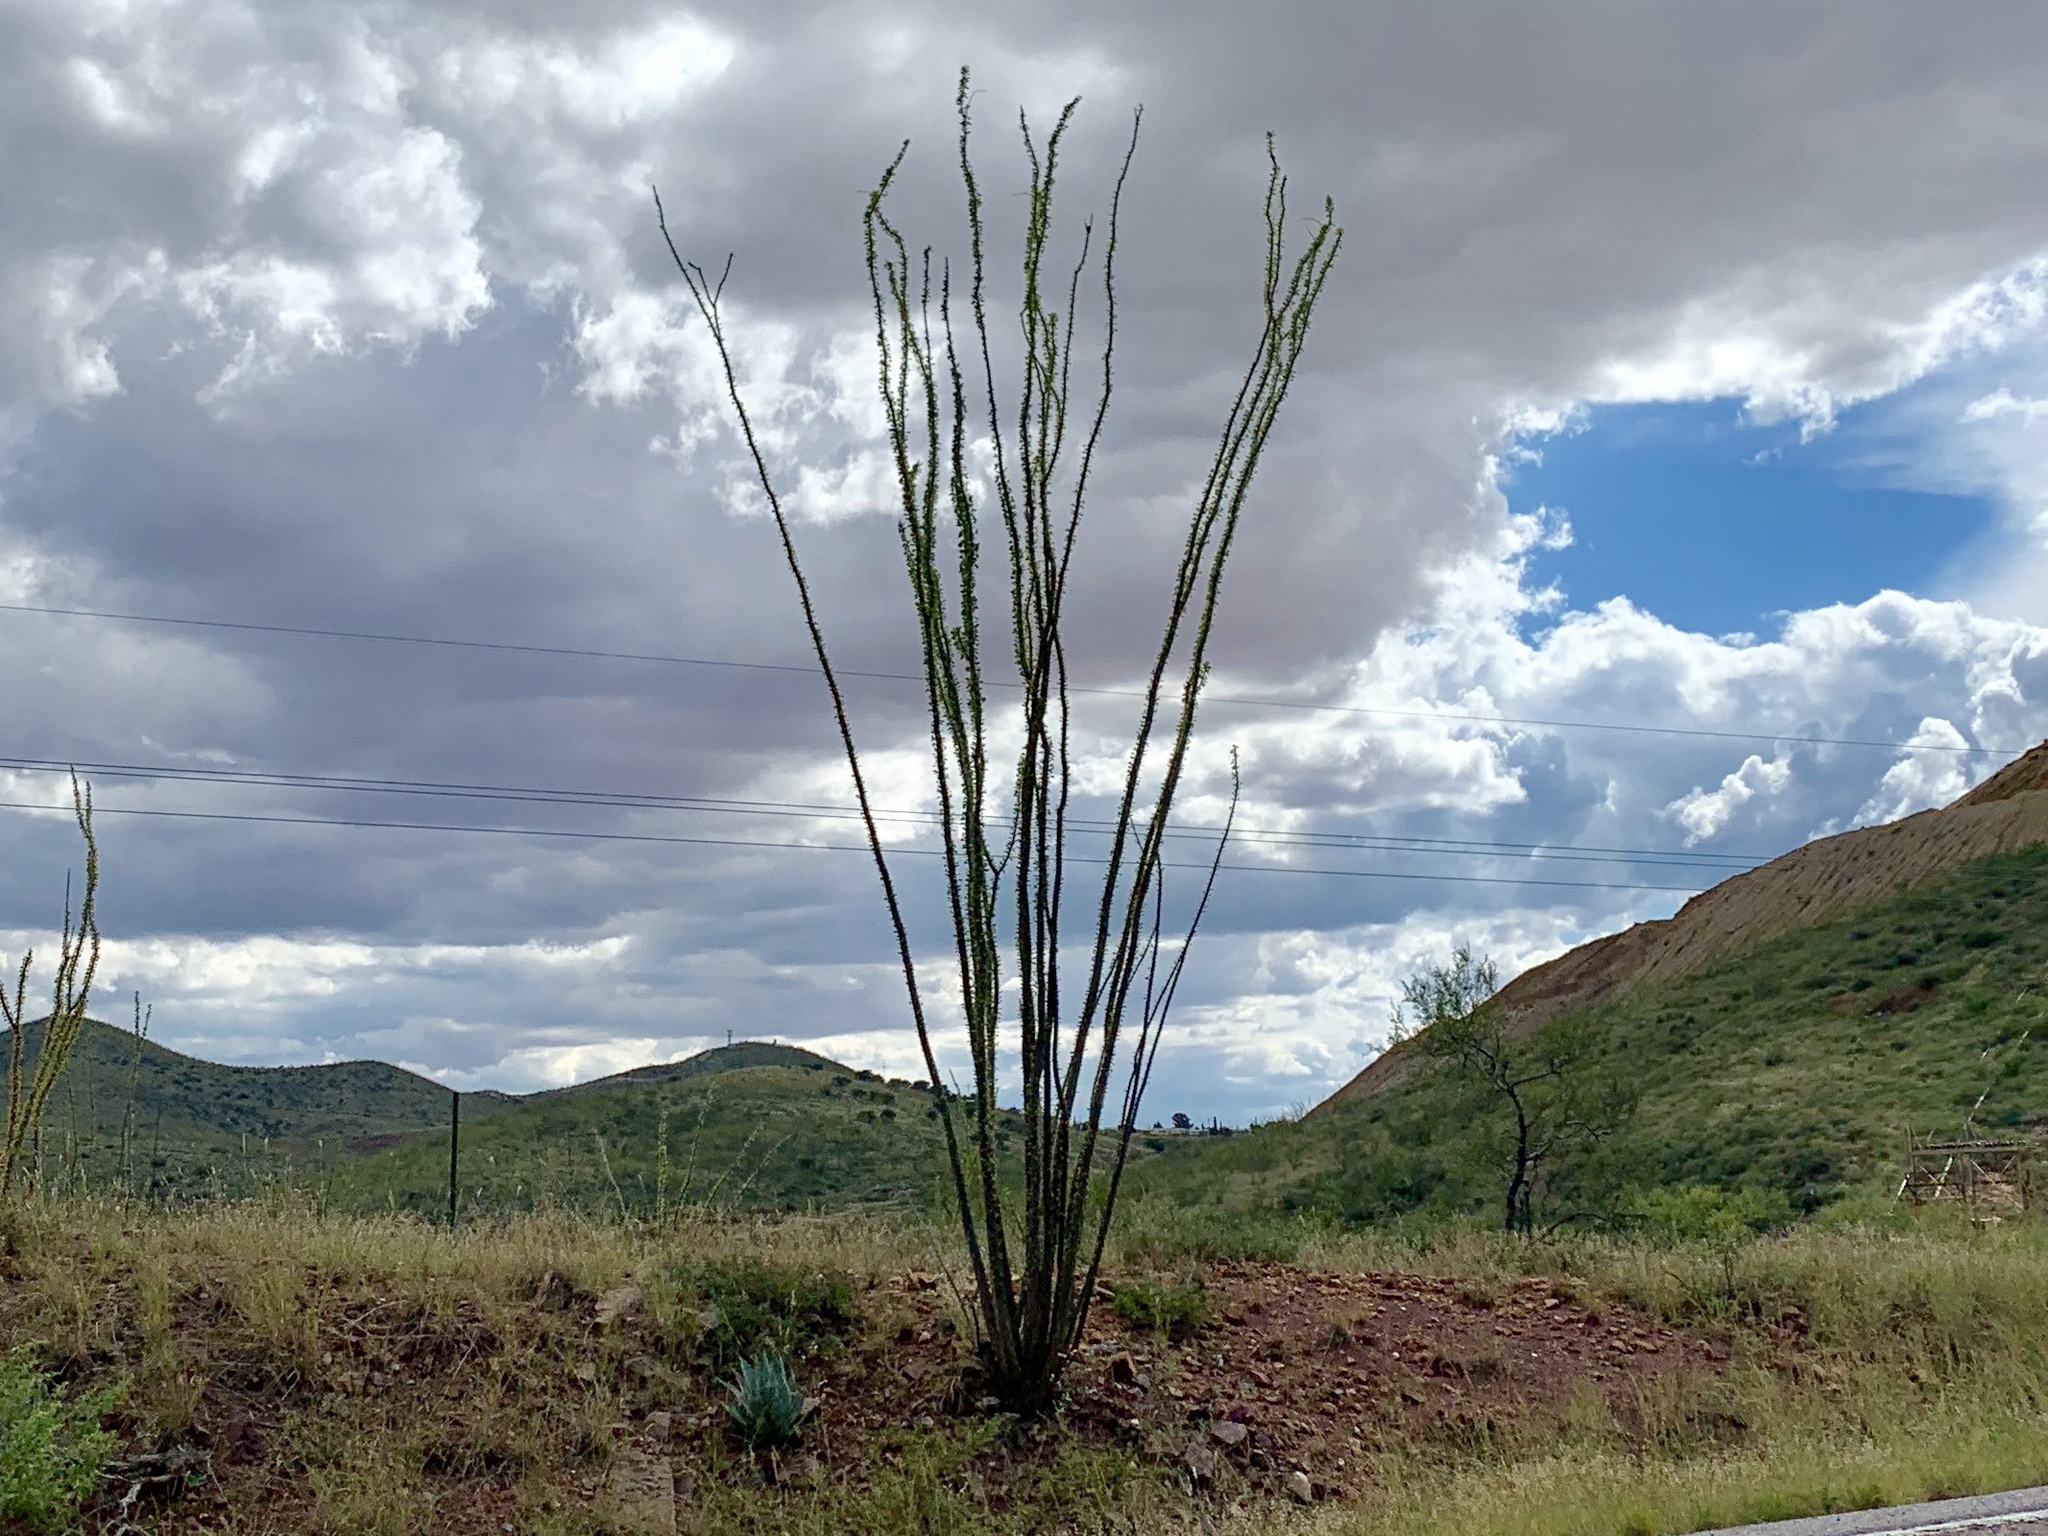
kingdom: Plantae
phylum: Tracheophyta
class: Magnoliopsida
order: Ericales
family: Fouquieriaceae
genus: Fouquieria
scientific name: Fouquieria splendens
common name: Vine-cactus
